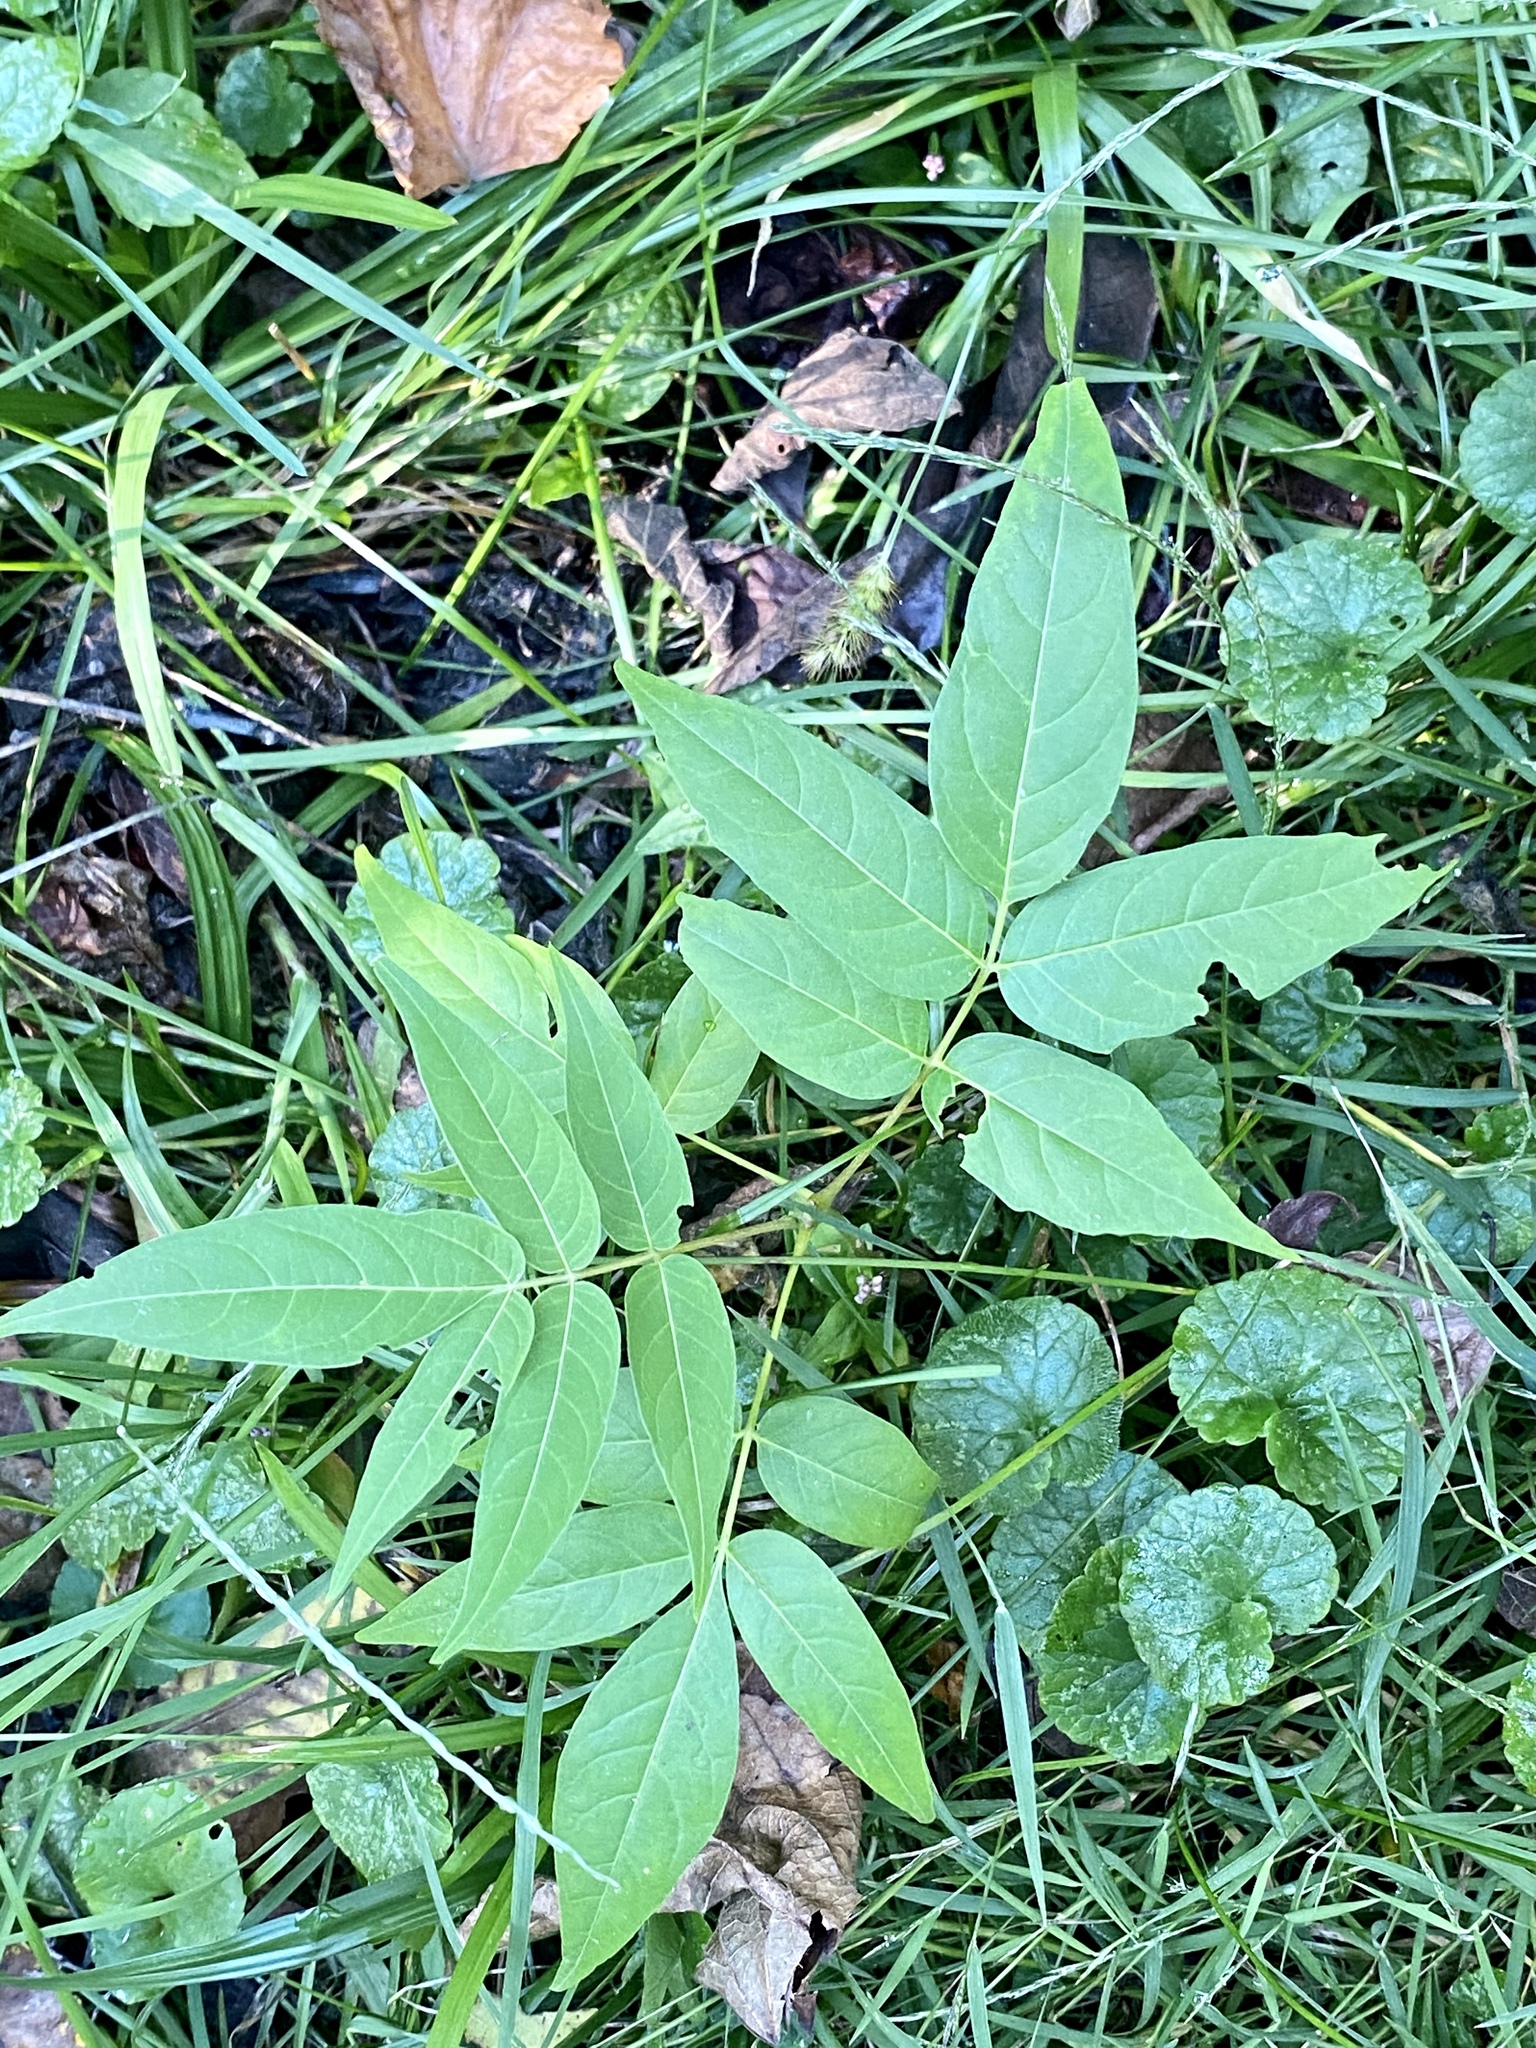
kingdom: Plantae
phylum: Tracheophyta
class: Magnoliopsida
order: Sapindales
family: Simaroubaceae
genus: Ailanthus
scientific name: Ailanthus altissima
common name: Tree-of-heaven
